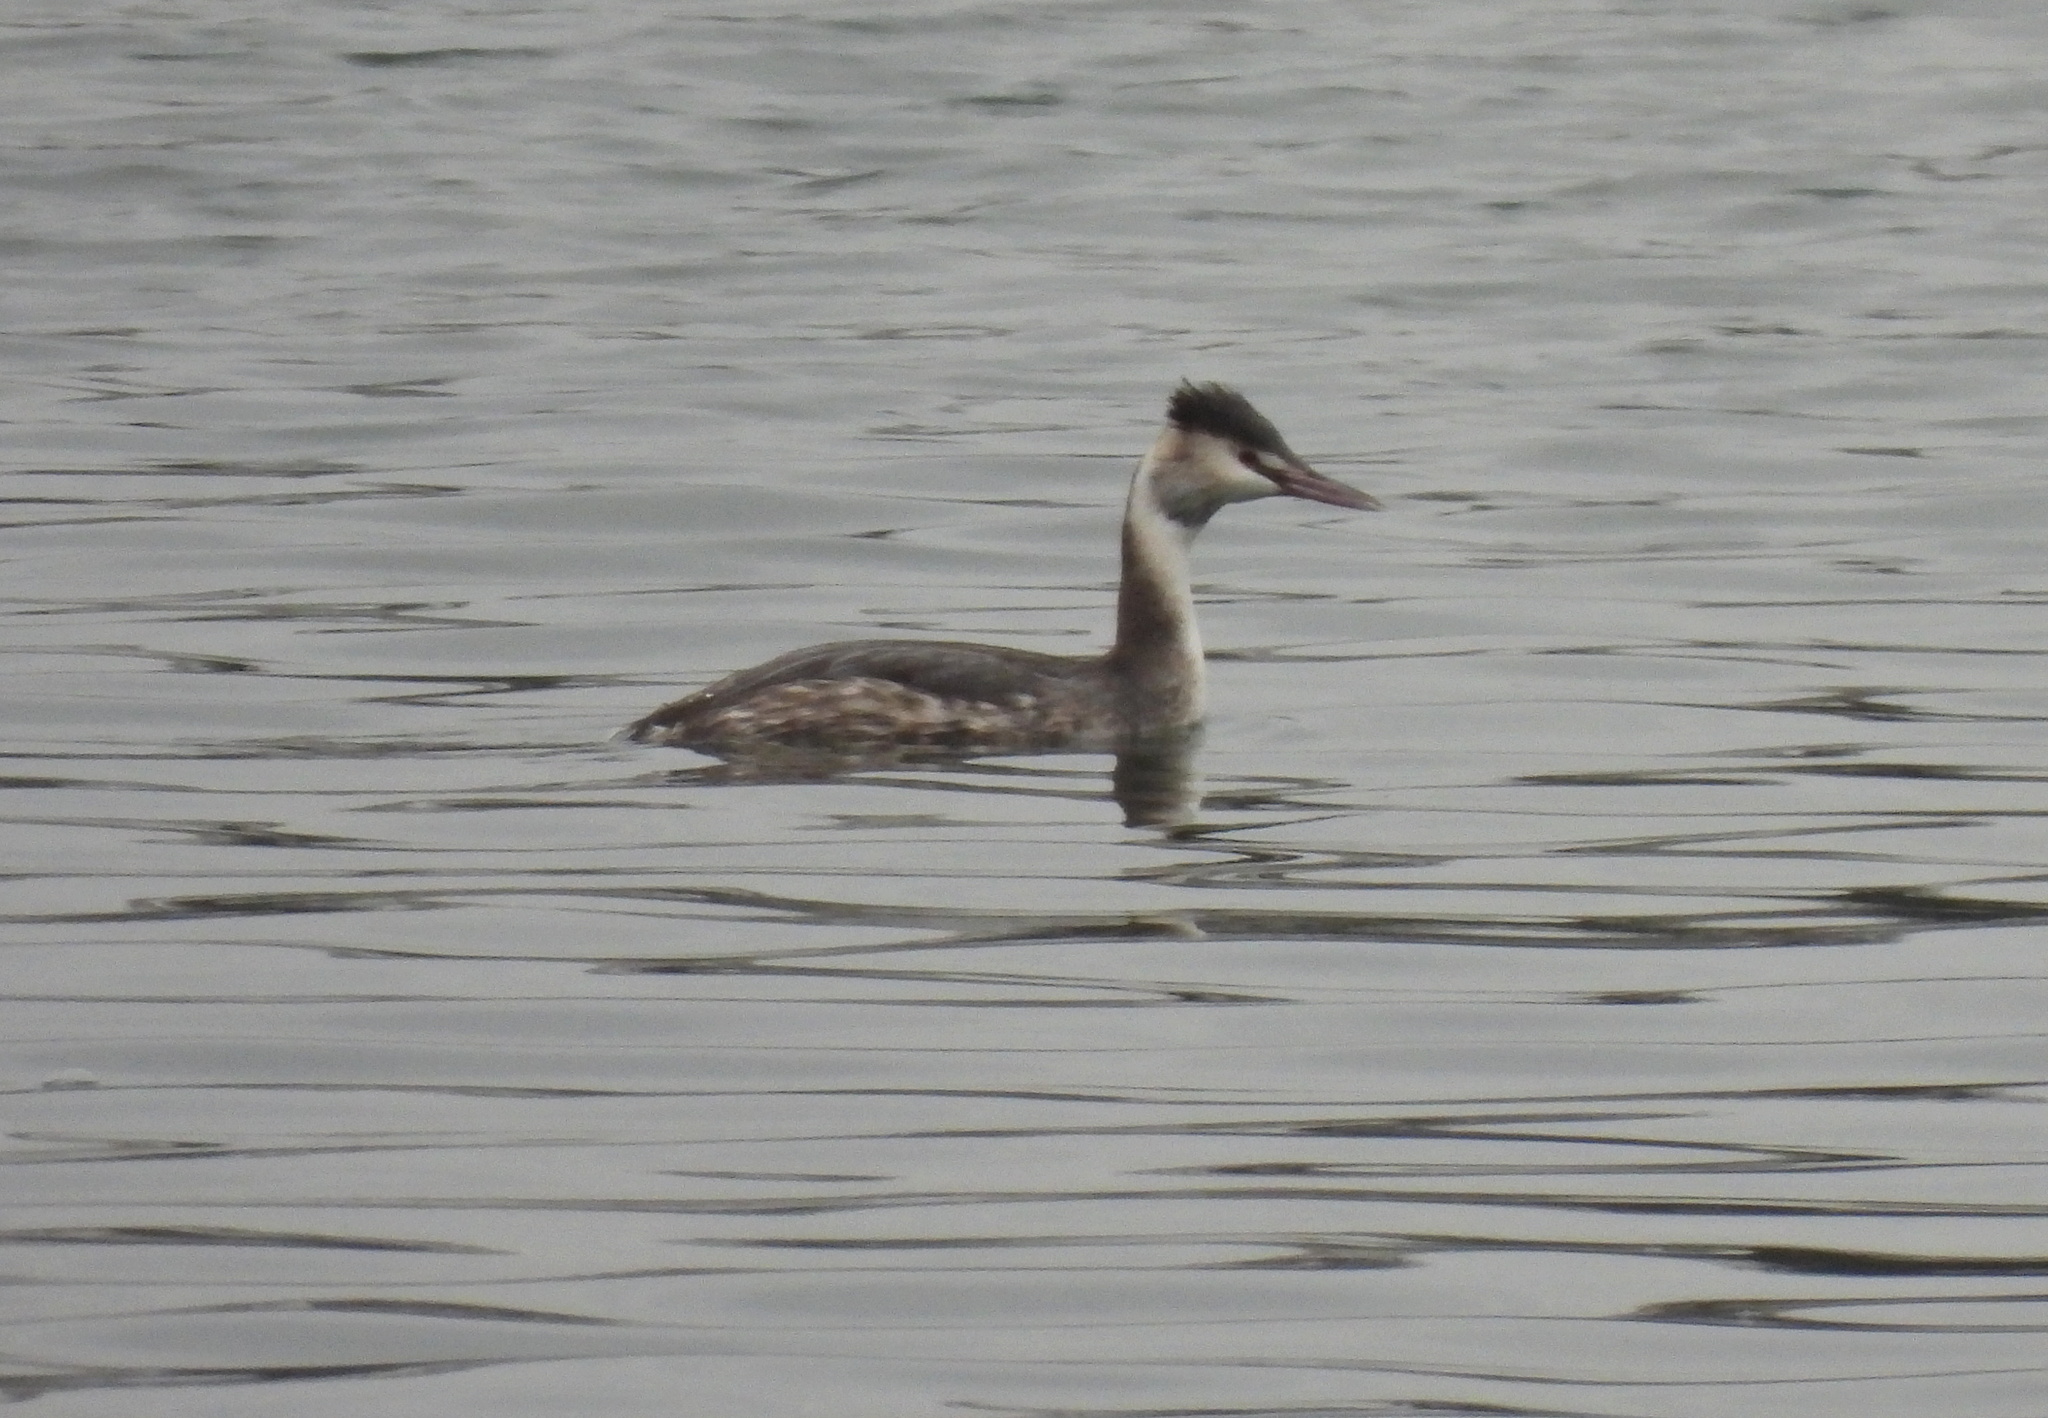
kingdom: Animalia
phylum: Chordata
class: Aves
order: Podicipediformes
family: Podicipedidae
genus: Podiceps
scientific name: Podiceps cristatus
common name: Great crested grebe
